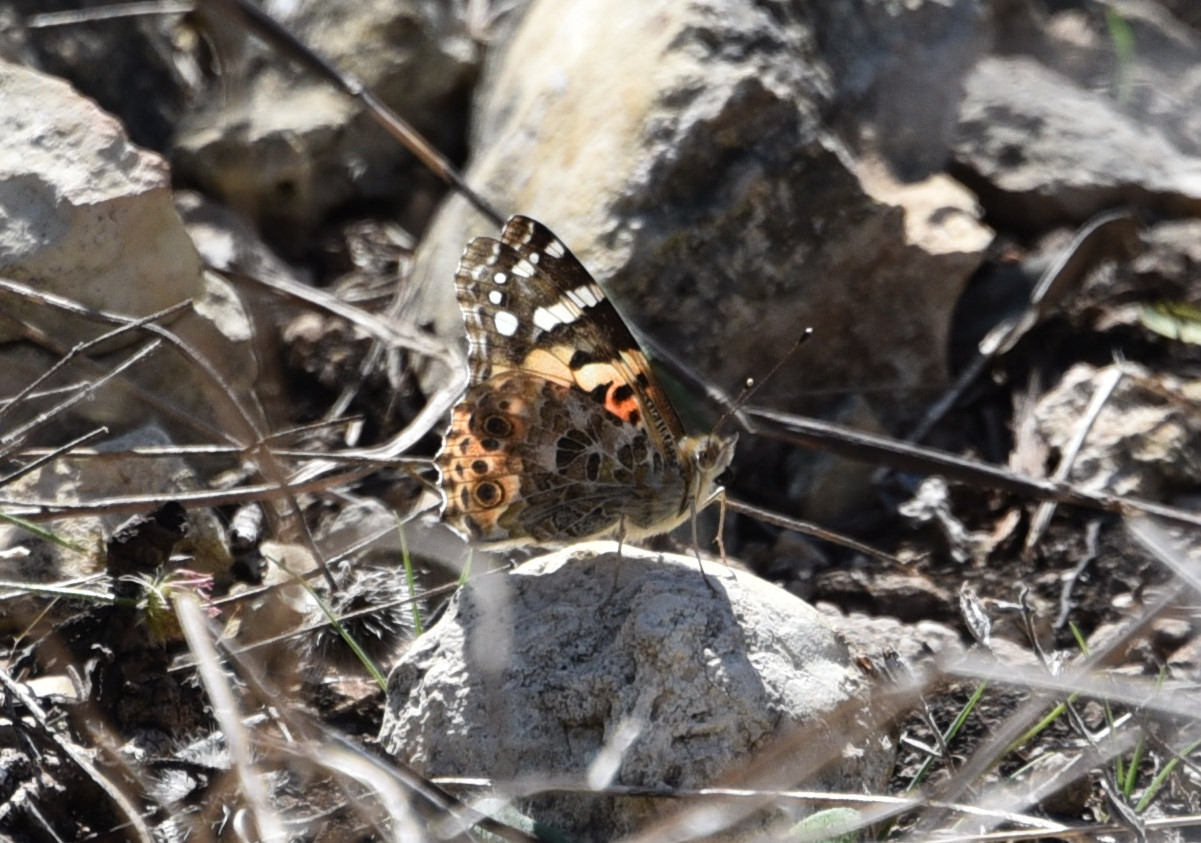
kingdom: Animalia
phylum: Arthropoda
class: Insecta
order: Lepidoptera
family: Nymphalidae
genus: Vanessa
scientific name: Vanessa cardui
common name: Painted lady
